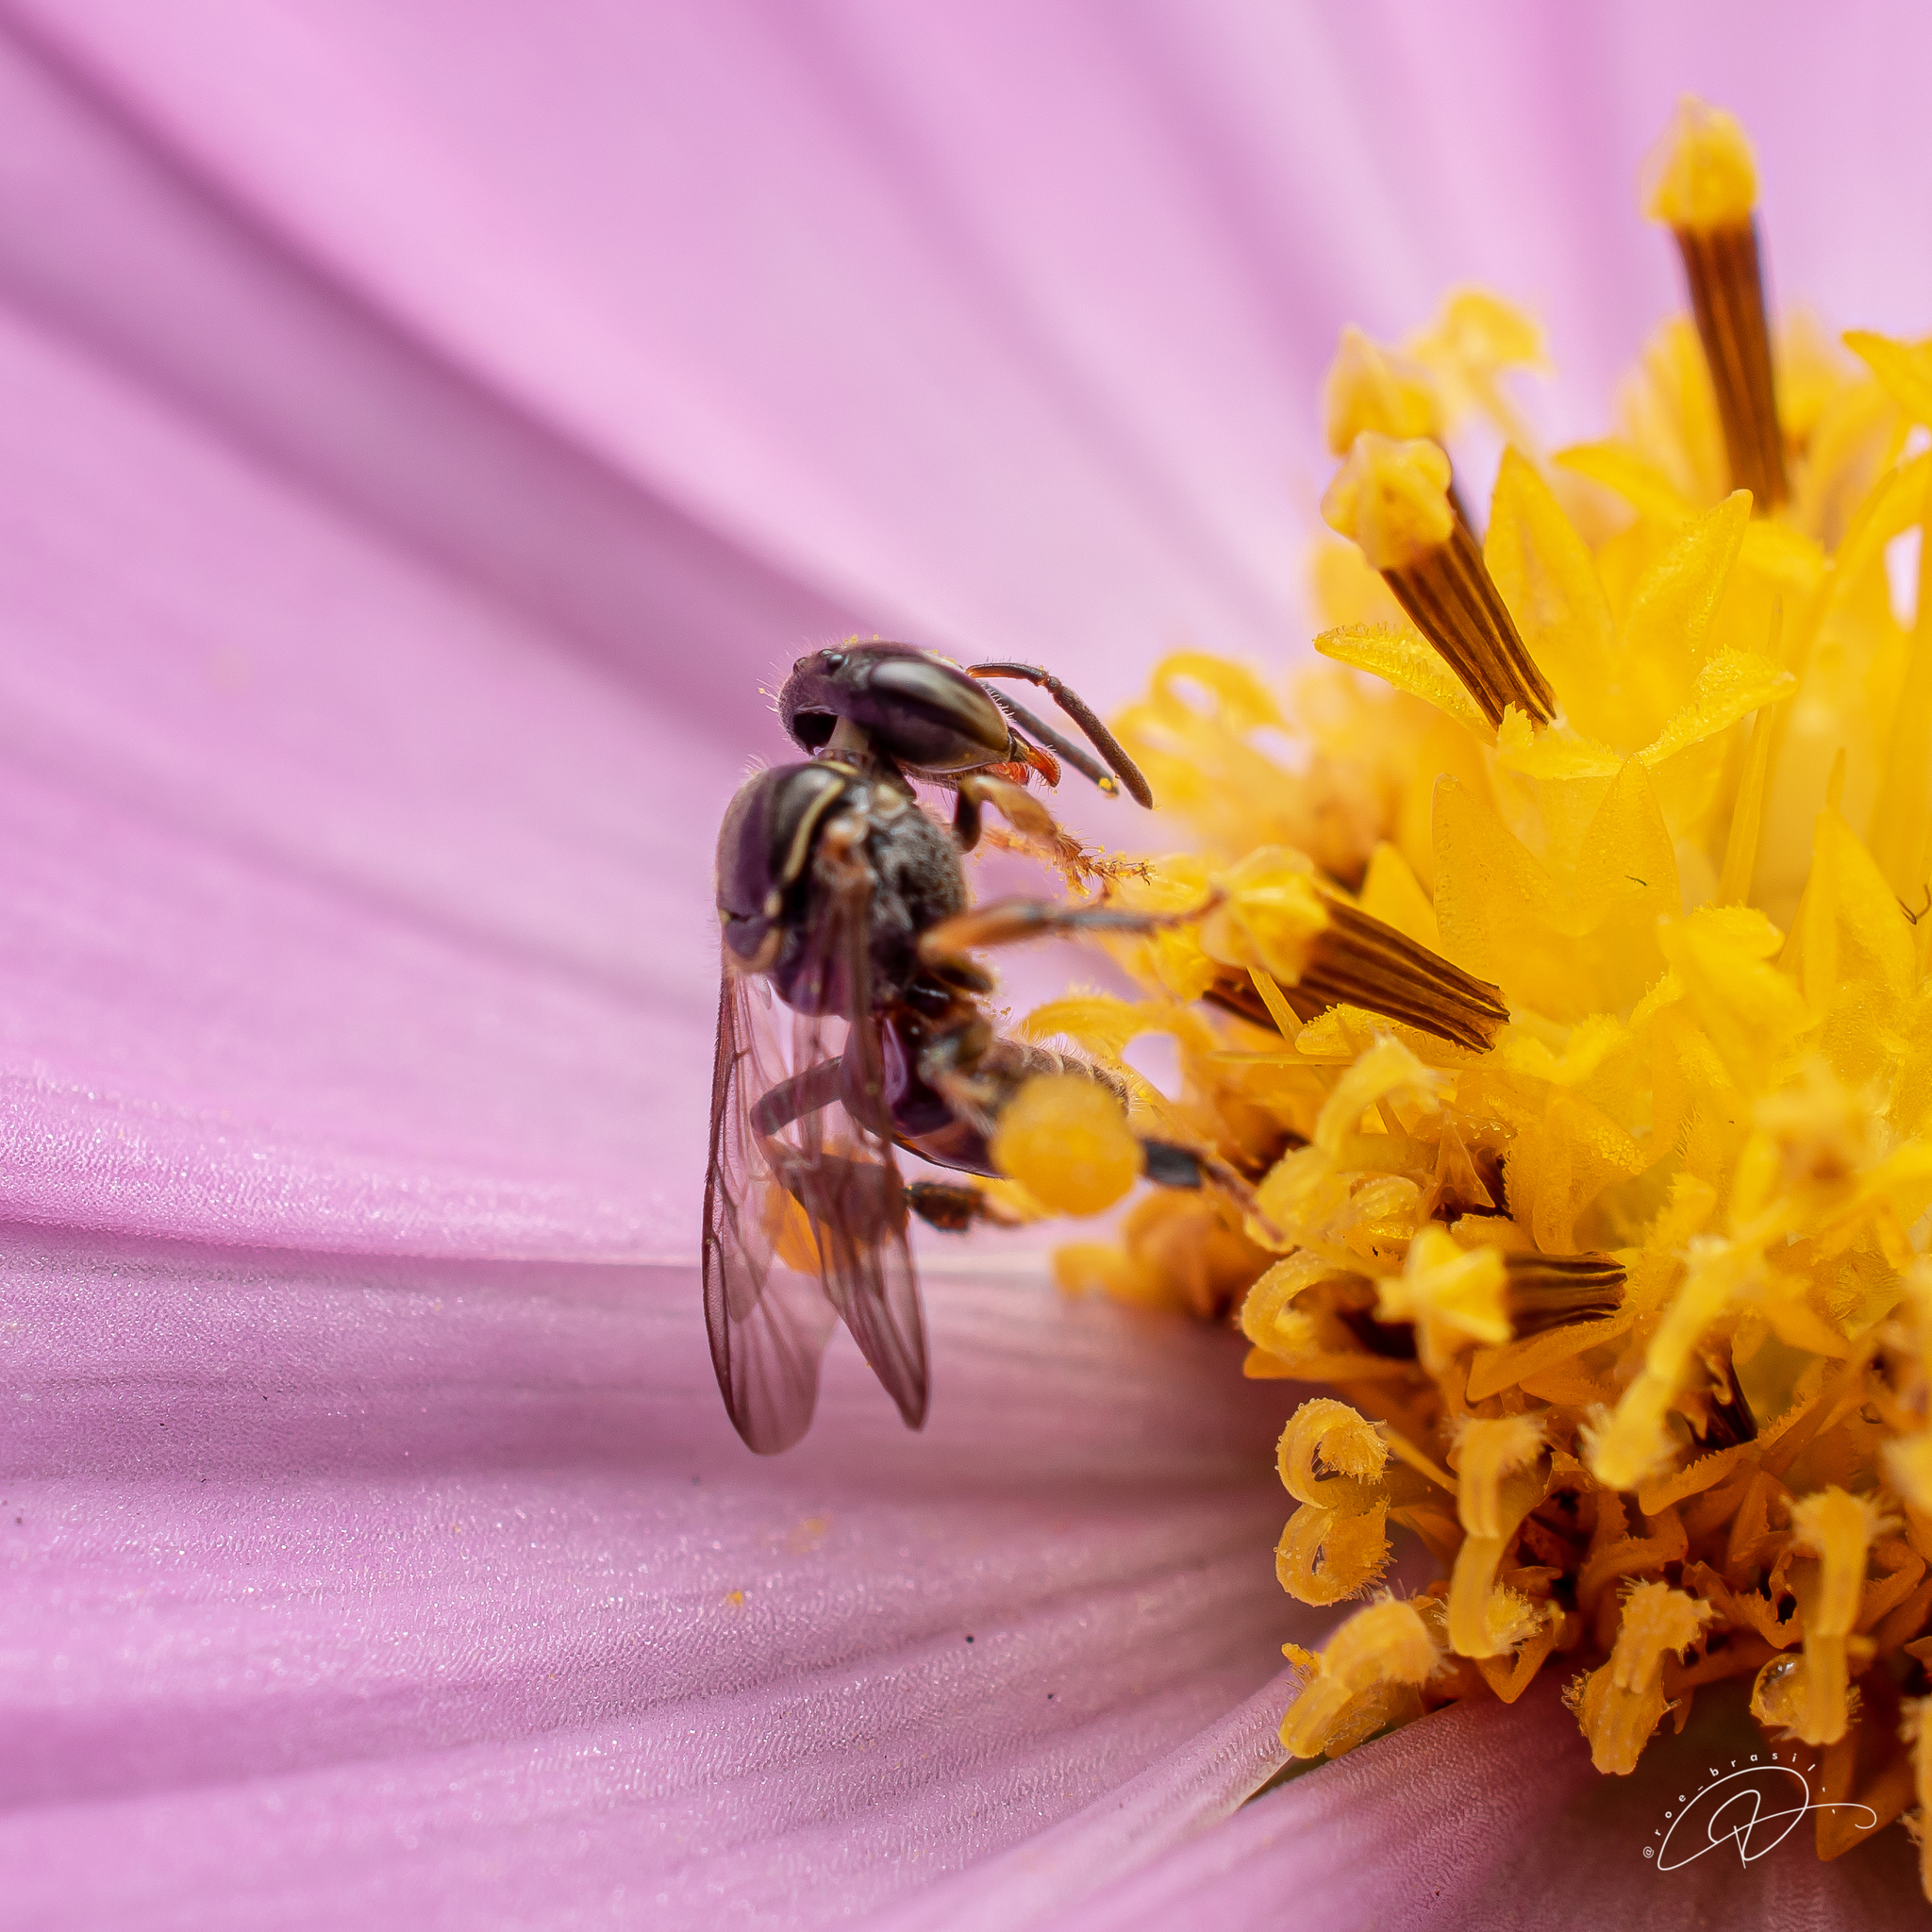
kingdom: Animalia
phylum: Arthropoda
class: Insecta
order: Hymenoptera
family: Apidae
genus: Plebeia
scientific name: Plebeia emerina
